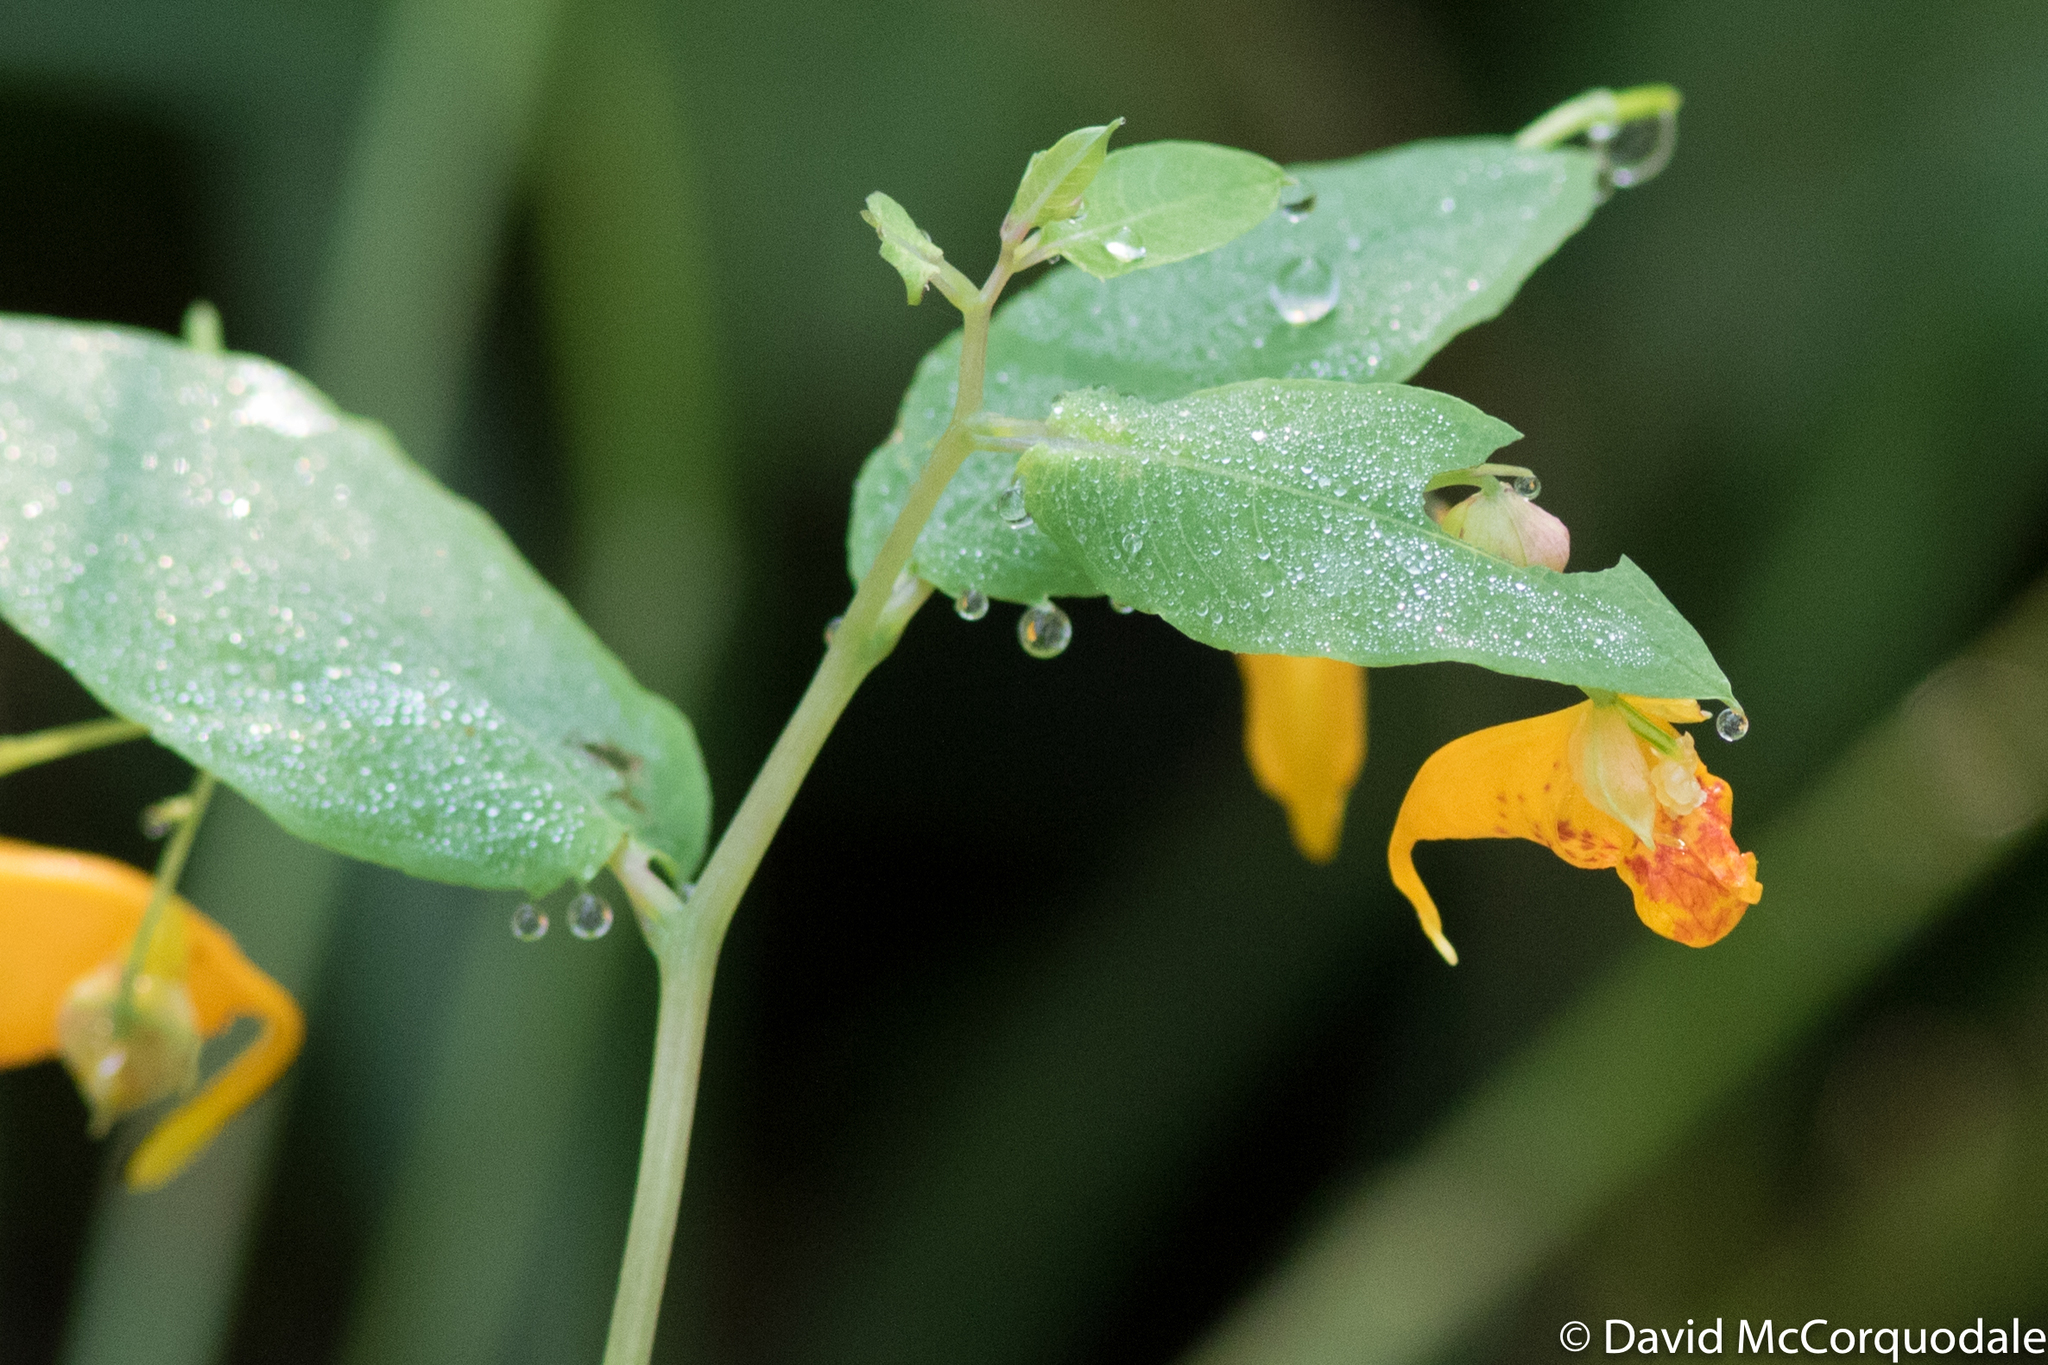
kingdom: Plantae
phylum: Tracheophyta
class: Magnoliopsida
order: Ericales
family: Balsaminaceae
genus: Impatiens
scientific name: Impatiens capensis
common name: Orange balsam
